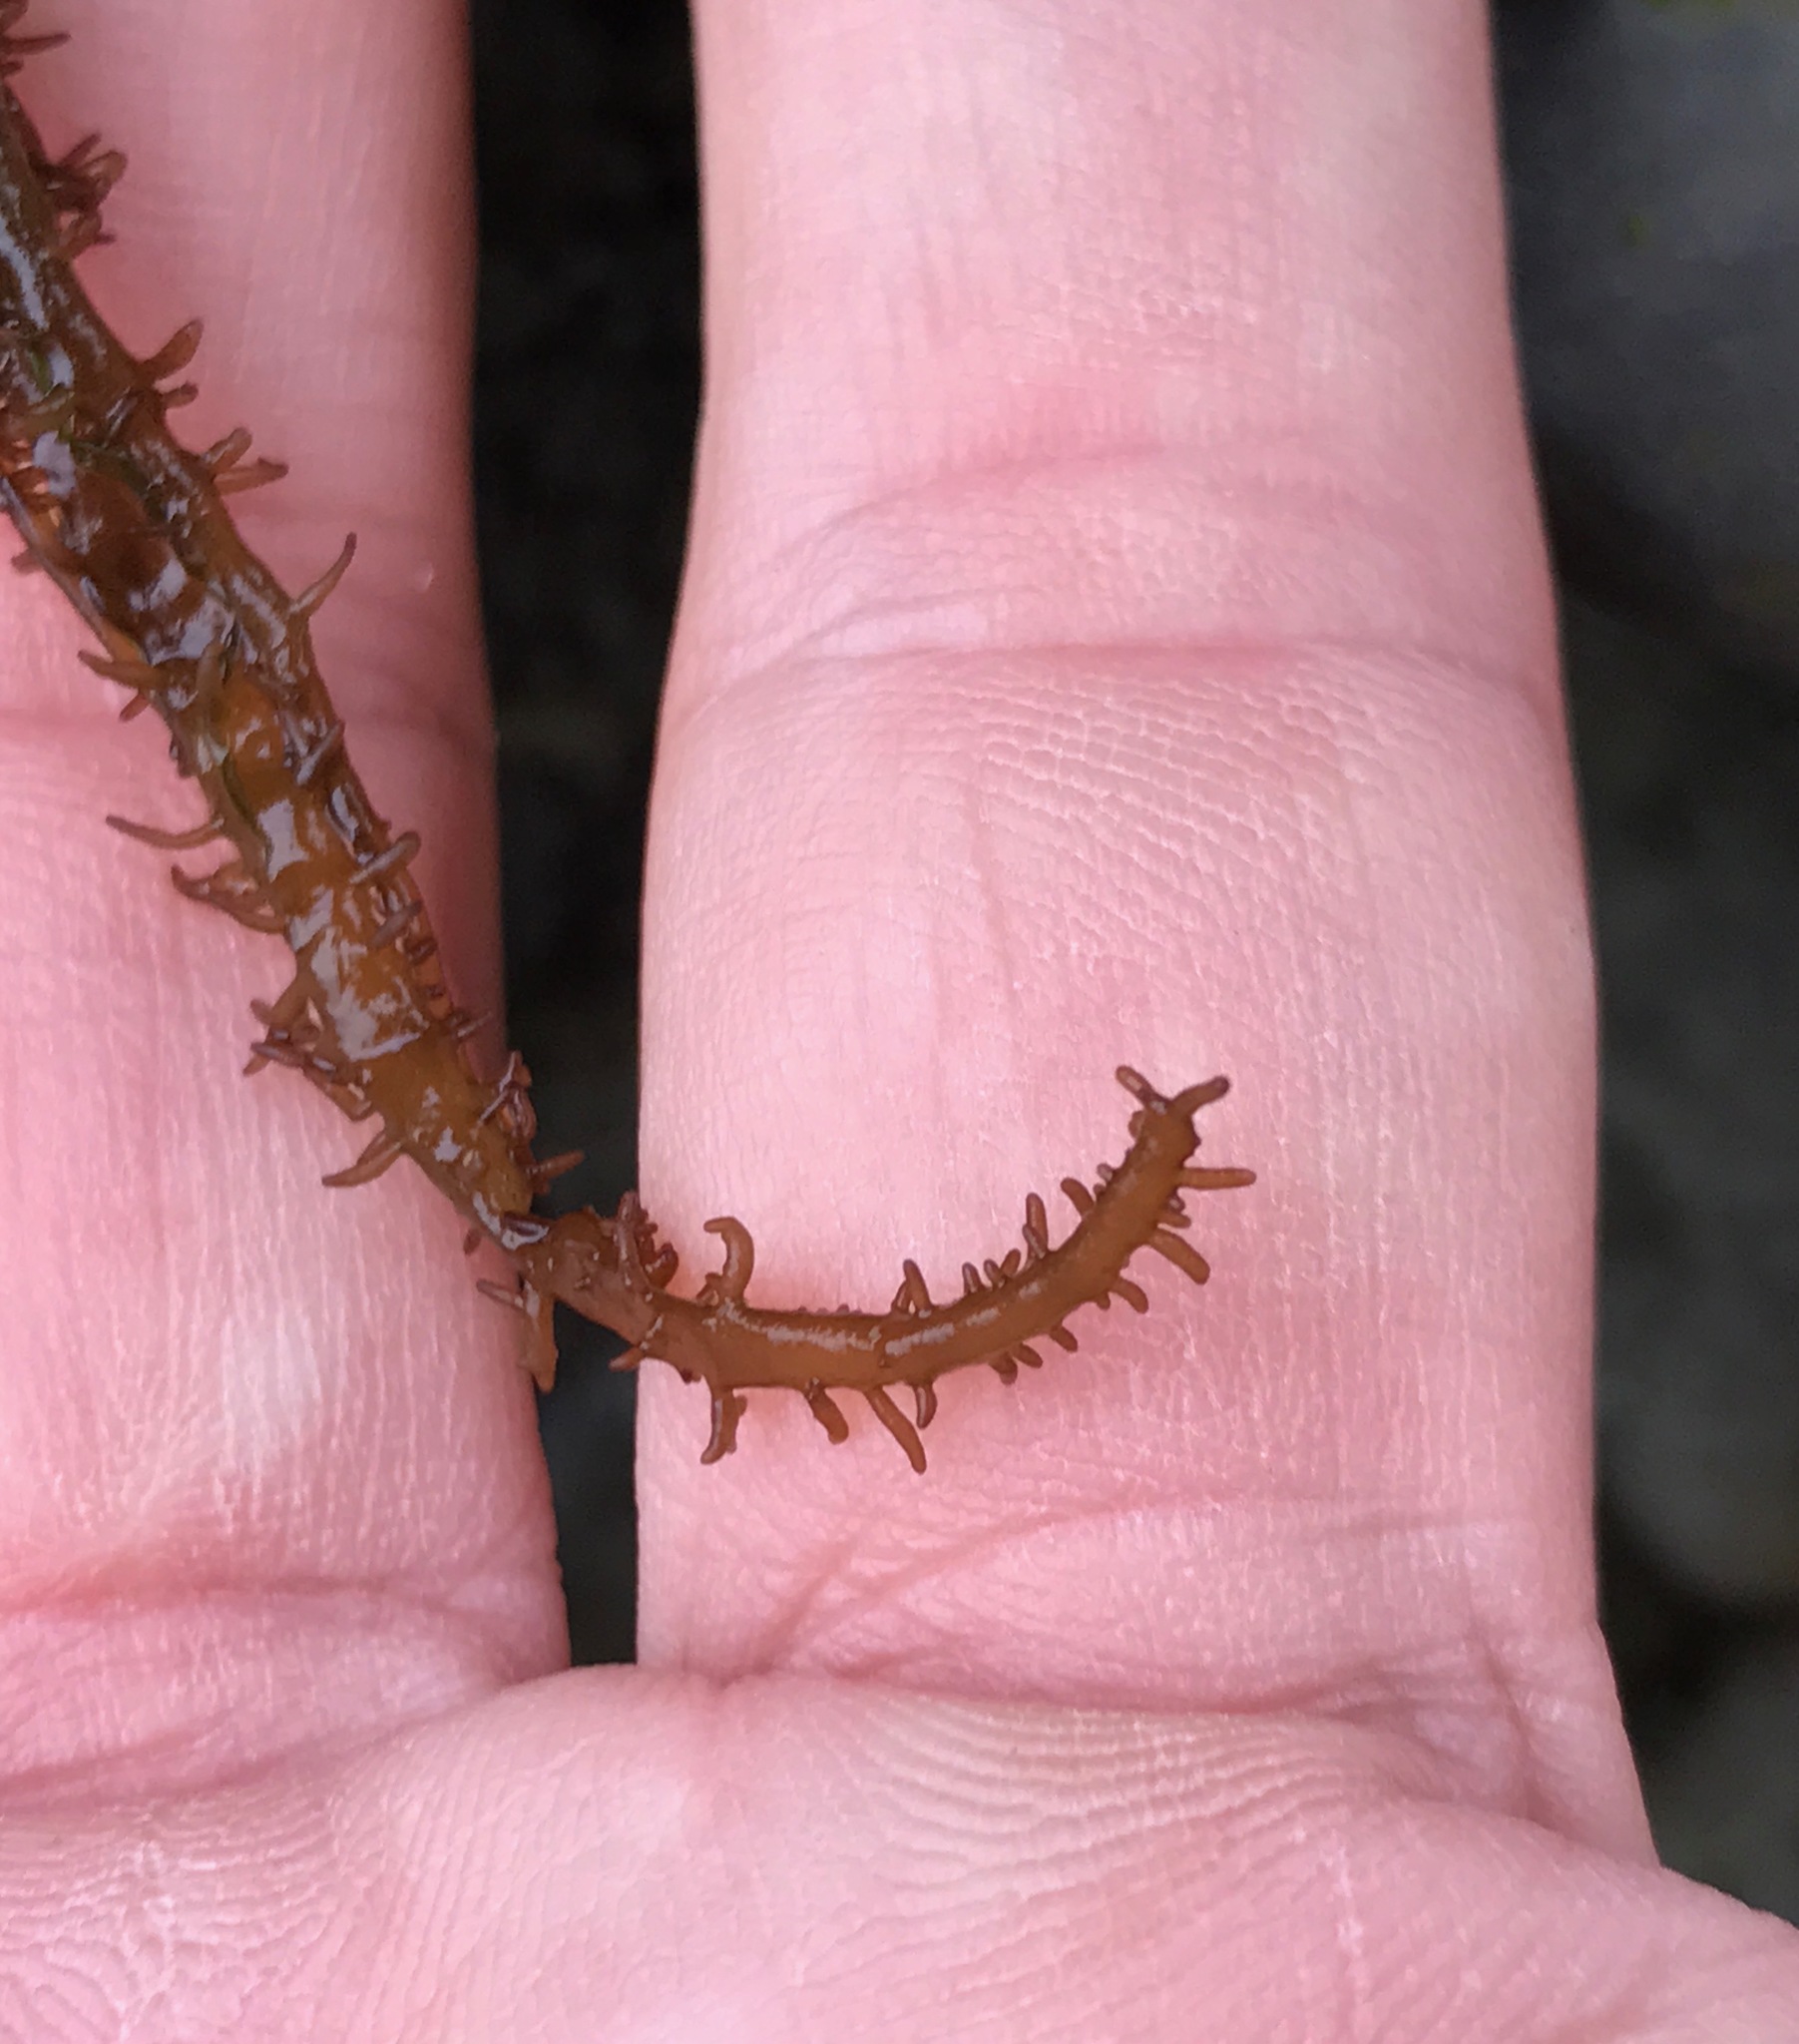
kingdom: Plantae
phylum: Rhodophyta
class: Florideophyceae
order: Nemaliales
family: Liagoraceae
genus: Cumagloia
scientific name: Cumagloia andersonii
